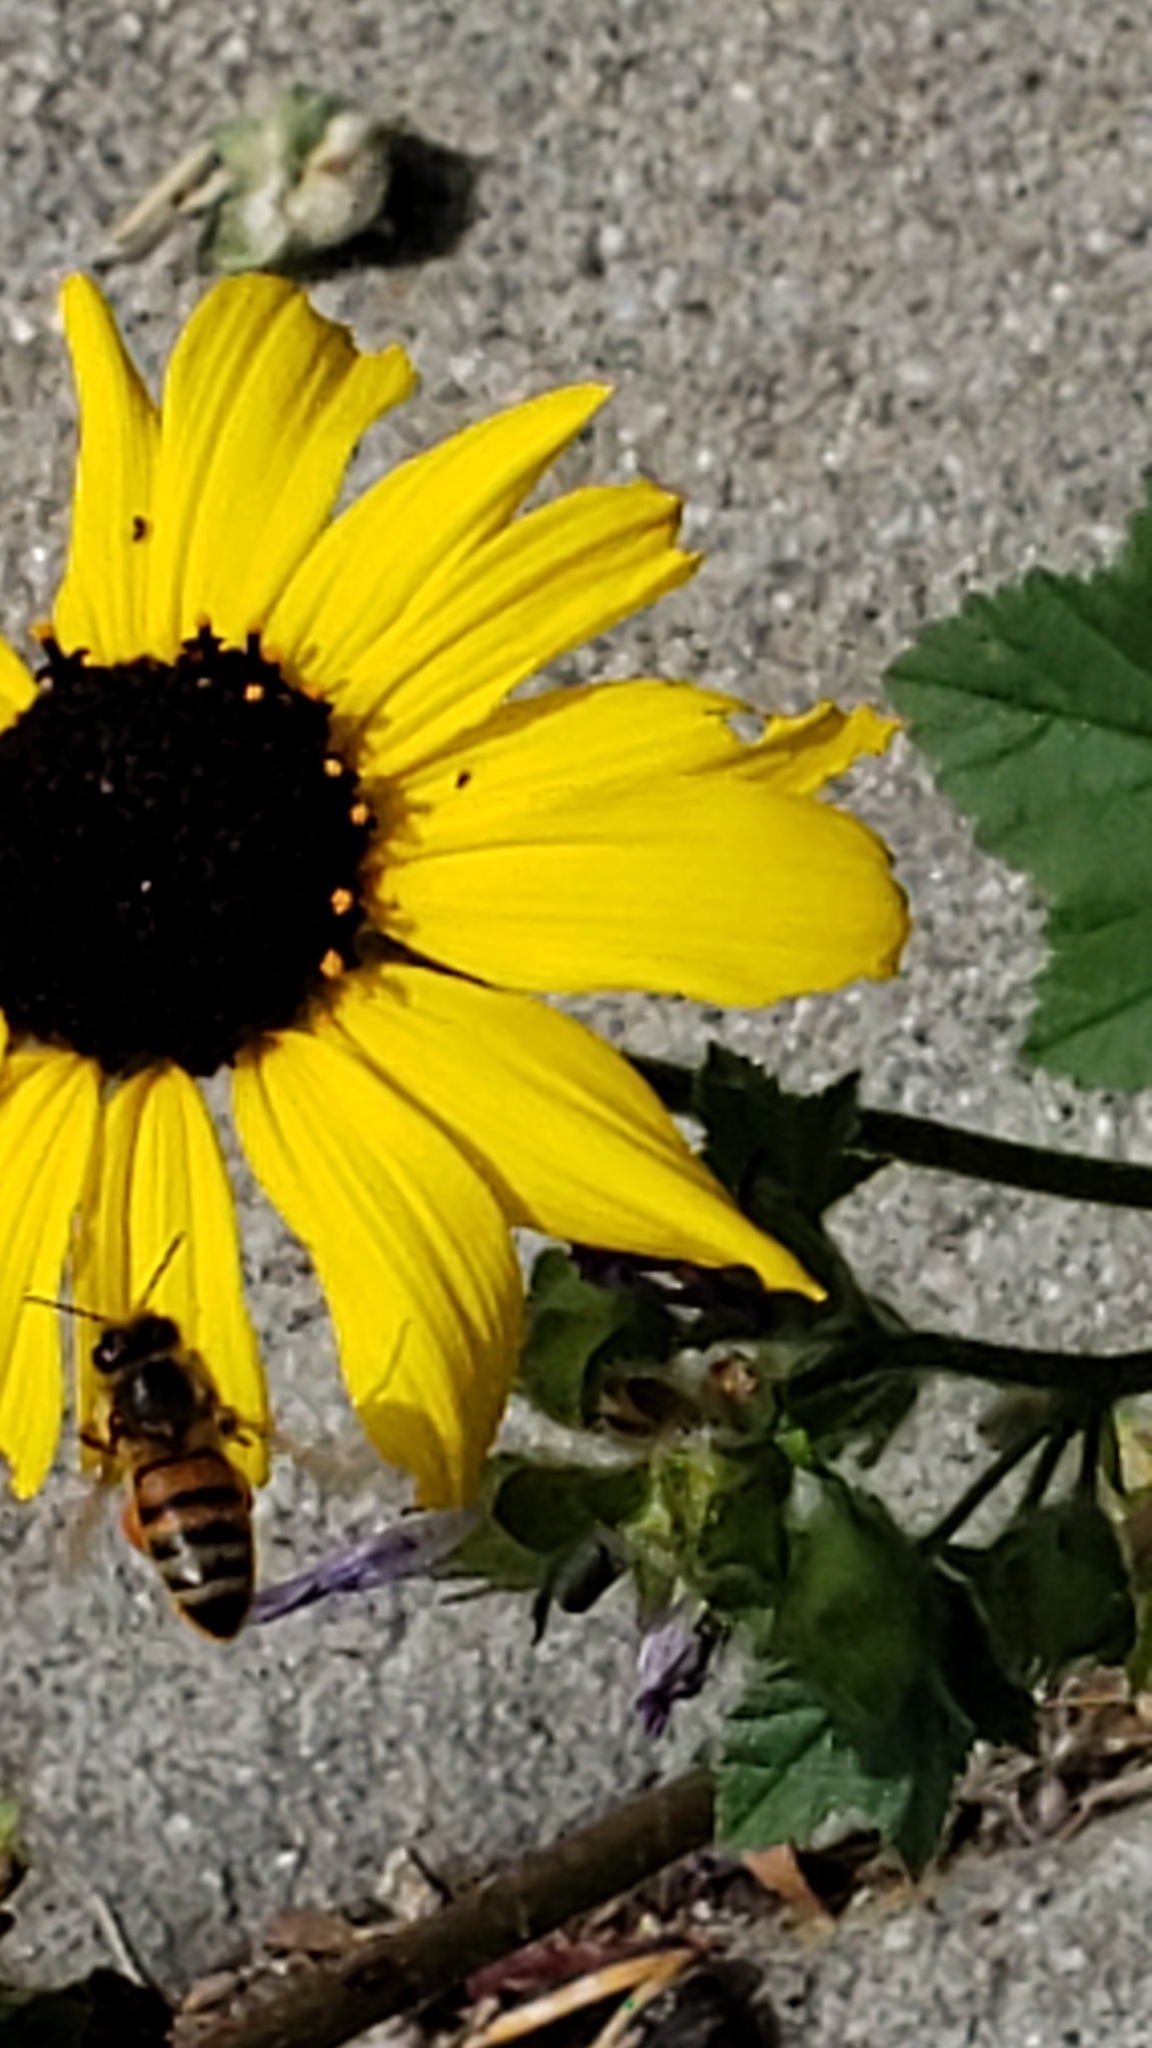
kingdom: Animalia
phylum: Arthropoda
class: Insecta
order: Hymenoptera
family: Apidae
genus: Apis
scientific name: Apis mellifera
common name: Honey bee
